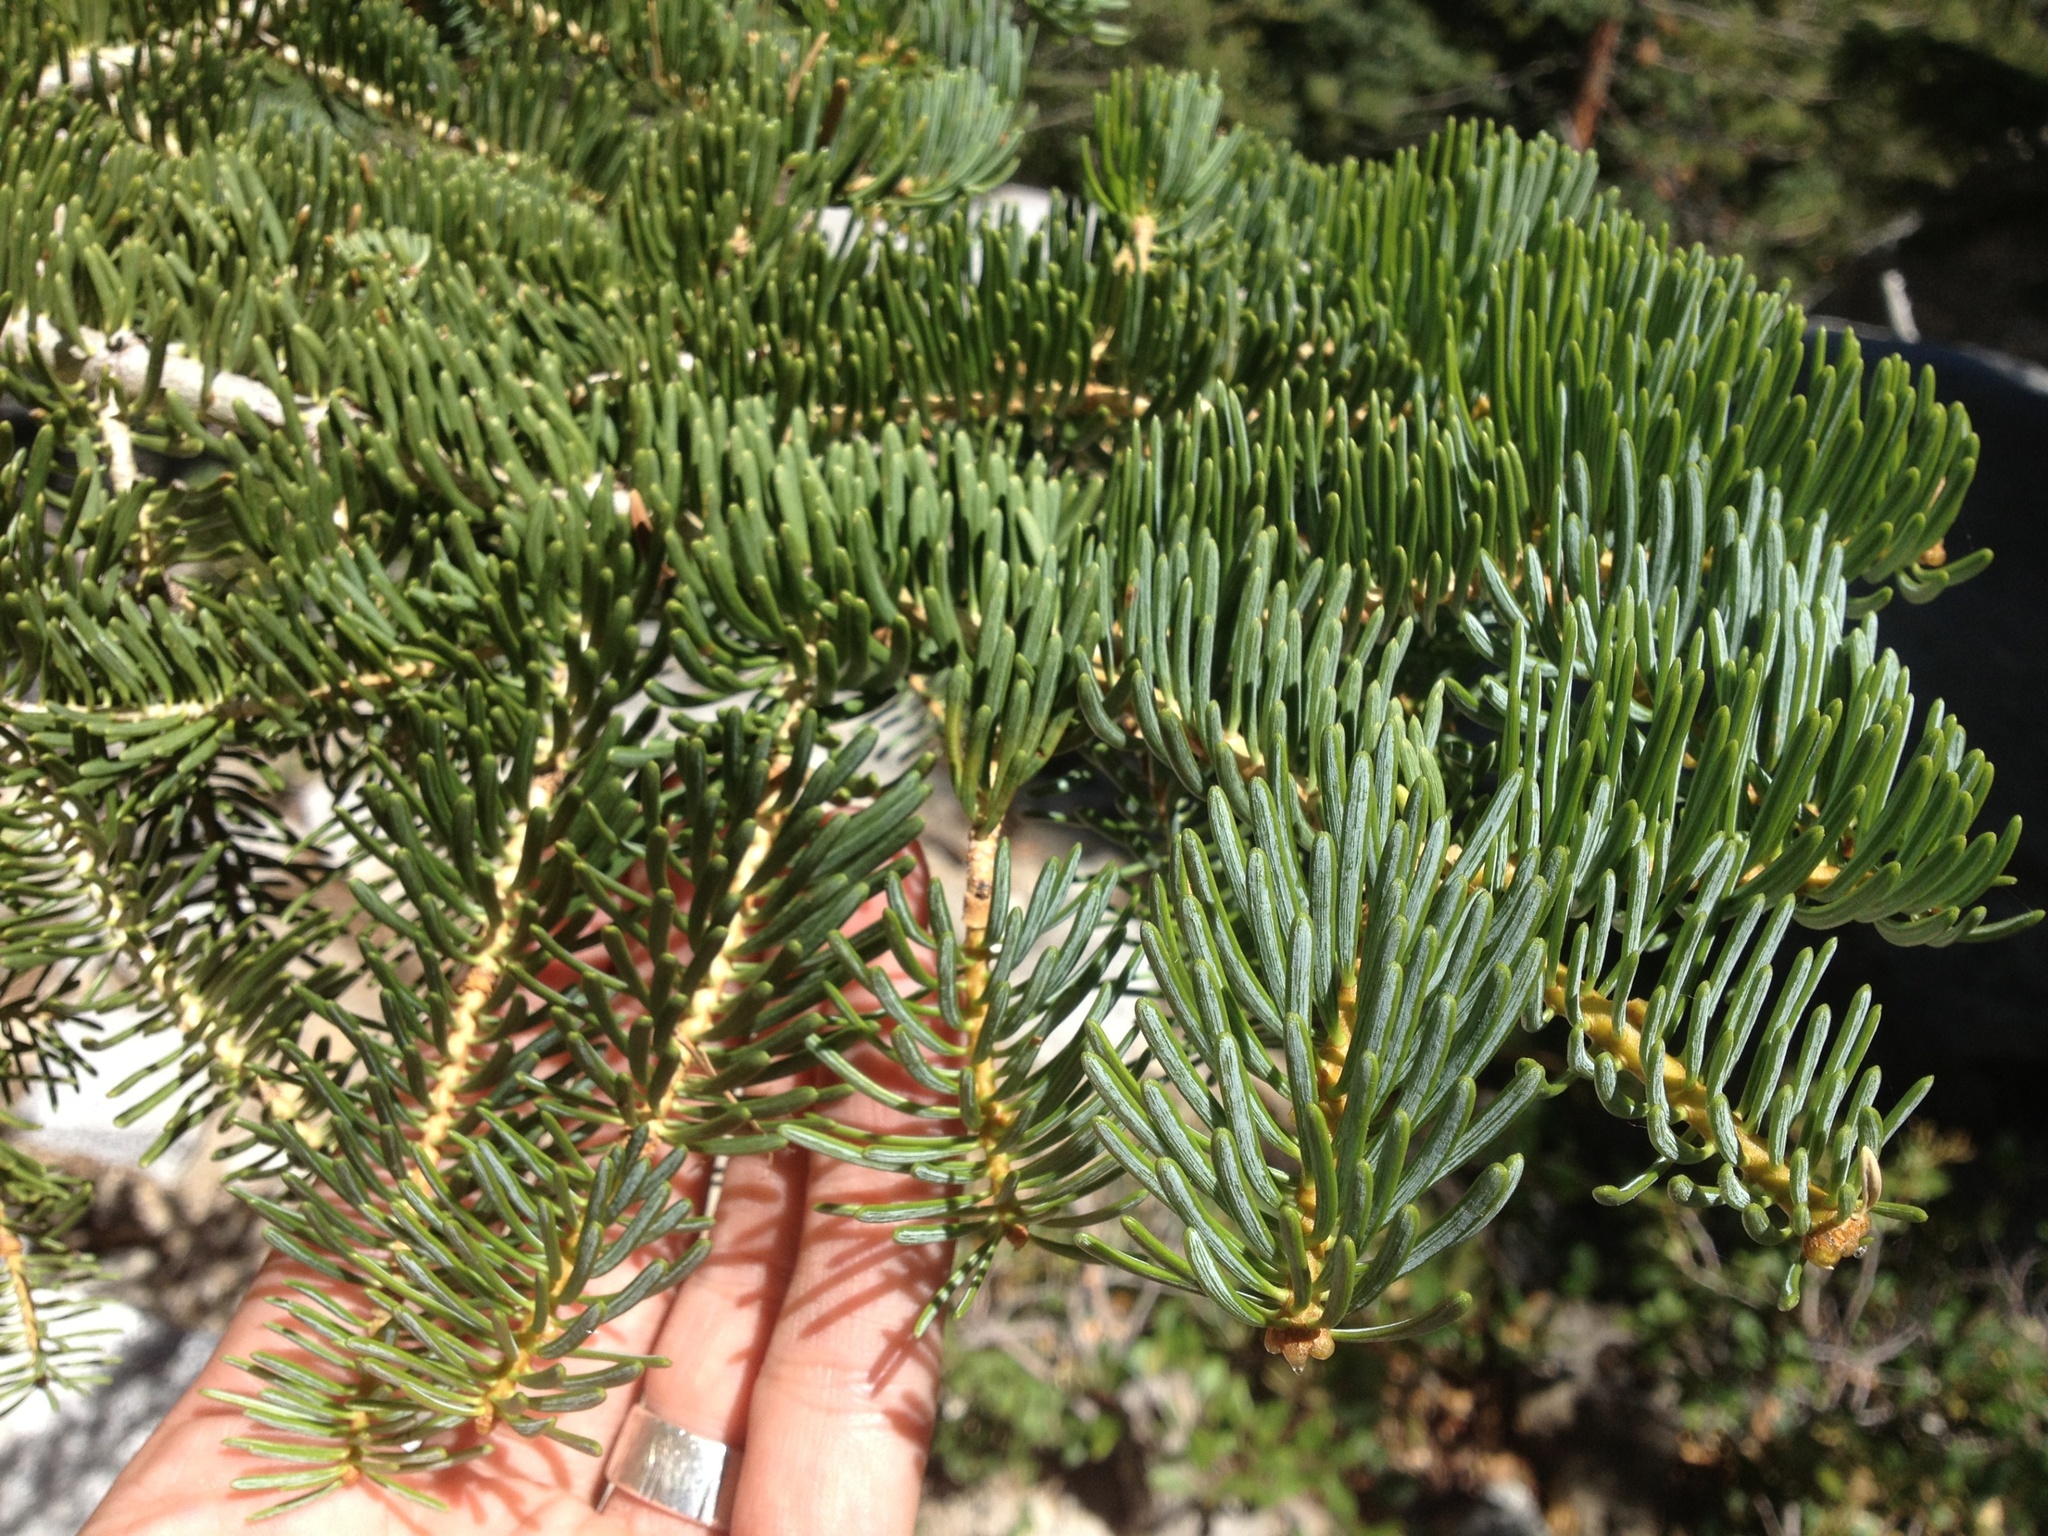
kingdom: Plantae
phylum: Tracheophyta
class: Pinopsida
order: Pinales
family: Pinaceae
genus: Abies
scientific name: Abies concolor
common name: Colorado fir
